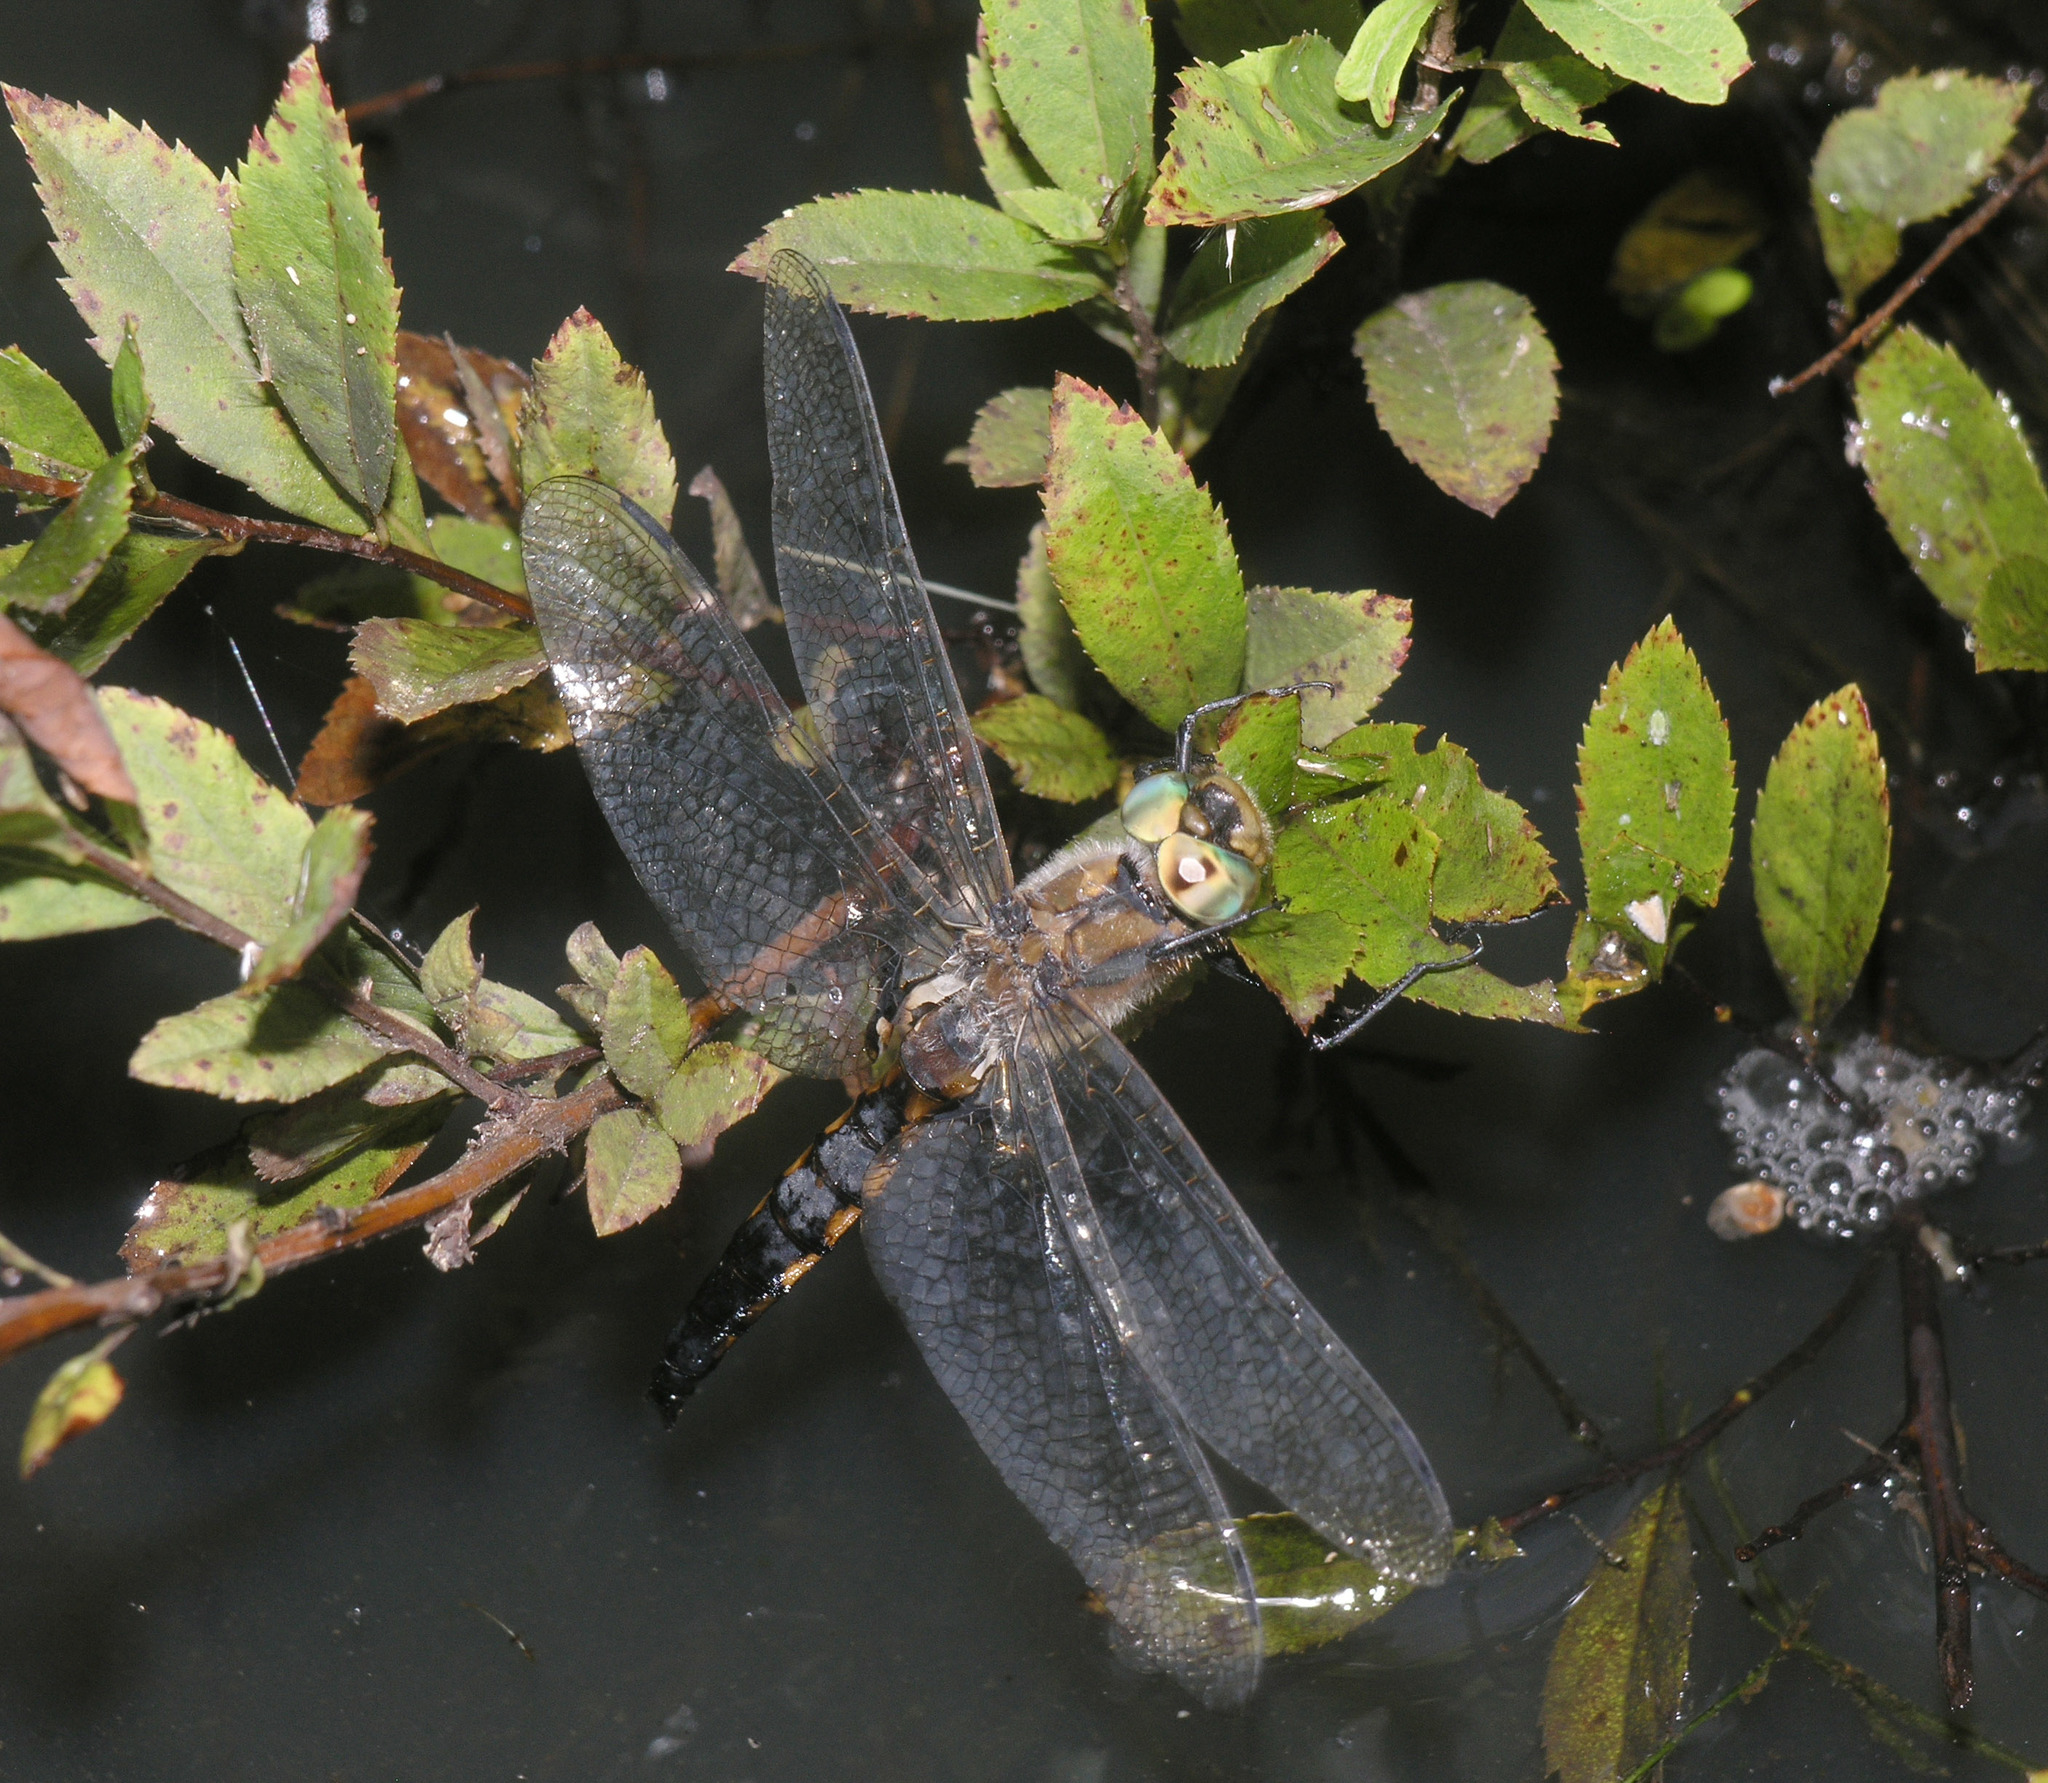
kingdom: Animalia
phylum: Arthropoda
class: Insecta
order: Odonata
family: Corduliidae
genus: Epitheca
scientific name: Epitheca bimaculata
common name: Eurasian baskettail
